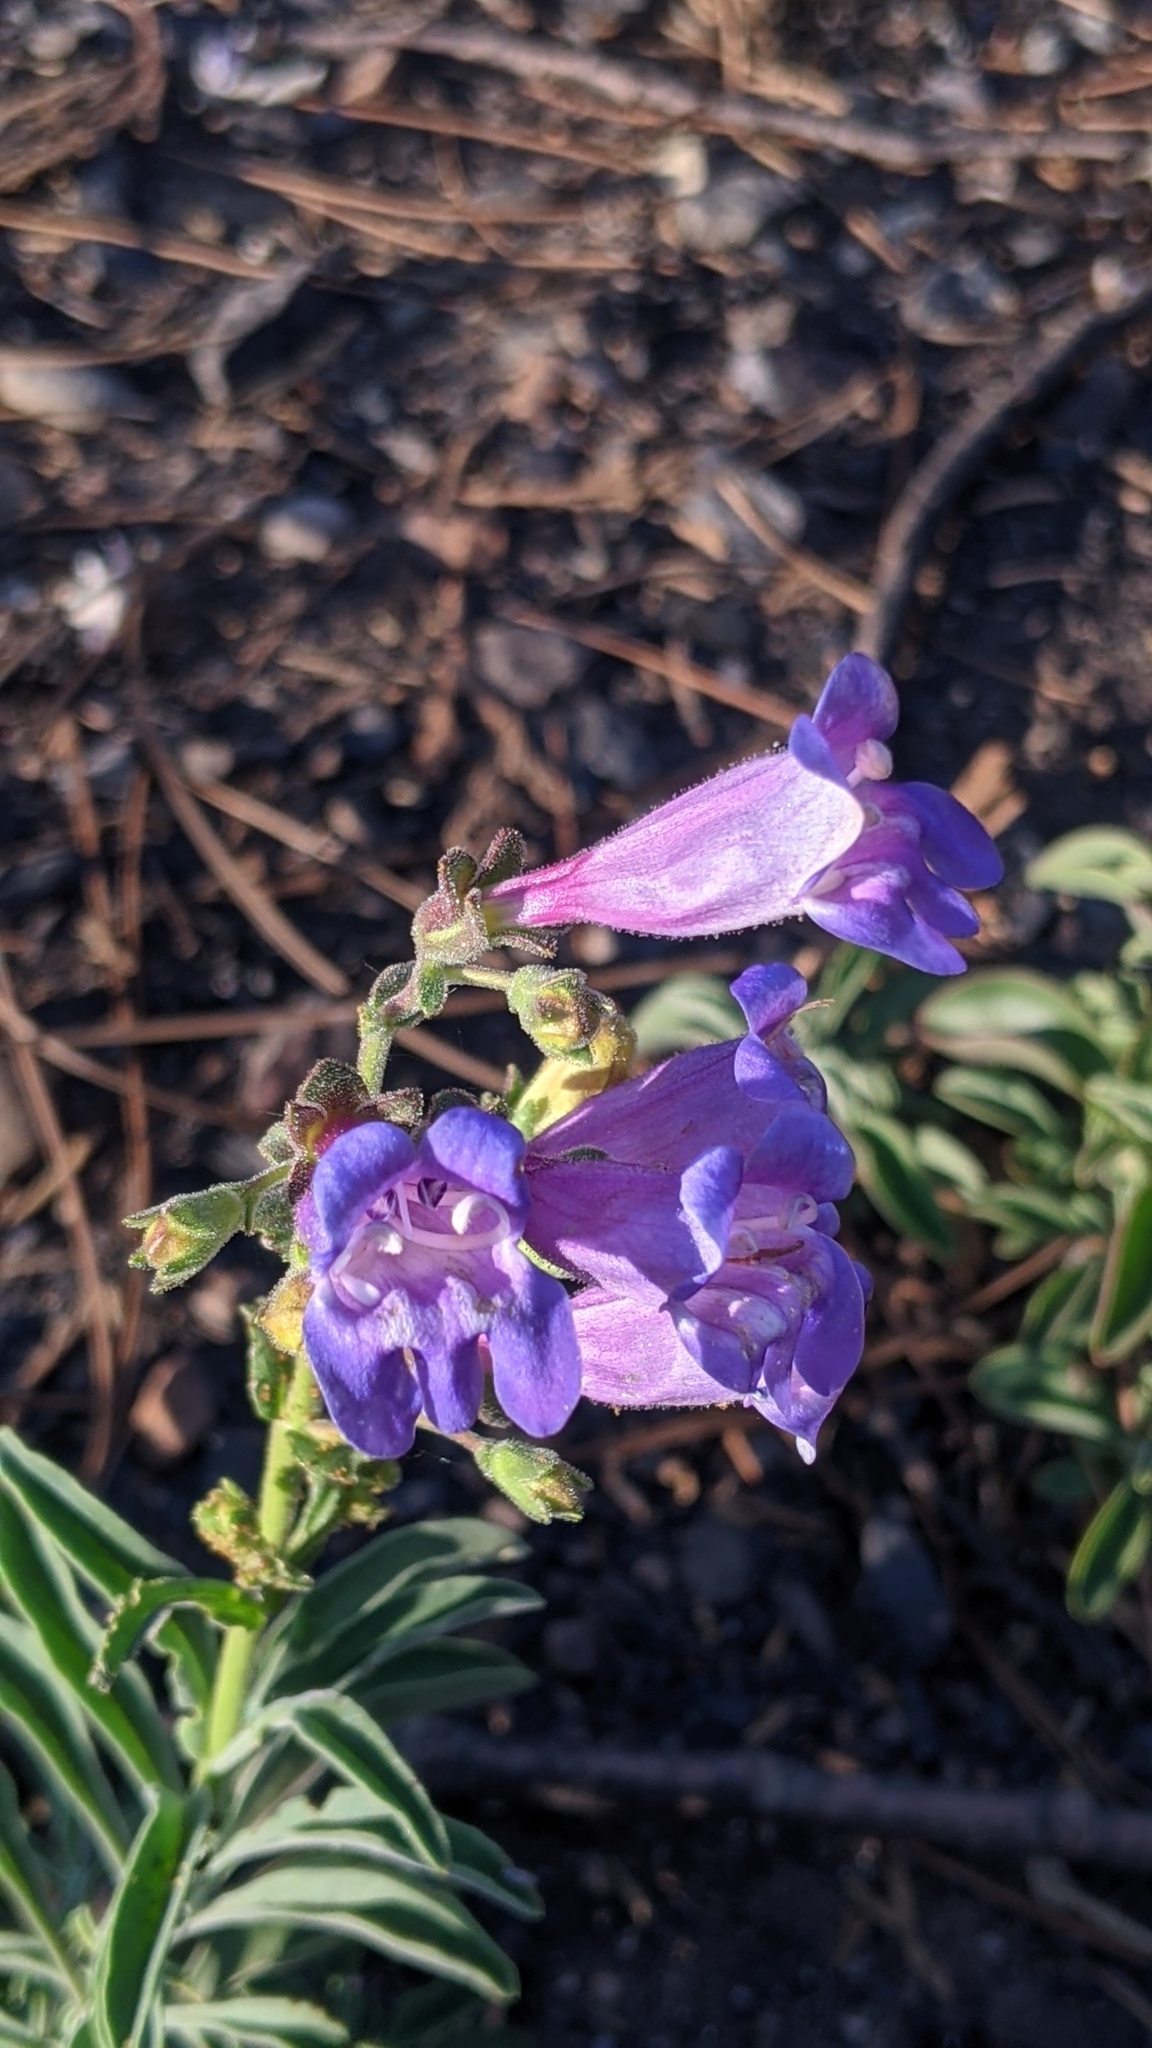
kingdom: Plantae
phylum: Tracheophyta
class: Magnoliopsida
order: Lamiales
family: Plantaginaceae
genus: Penstemon
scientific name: Penstemon laetus
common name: Gay penstemon
